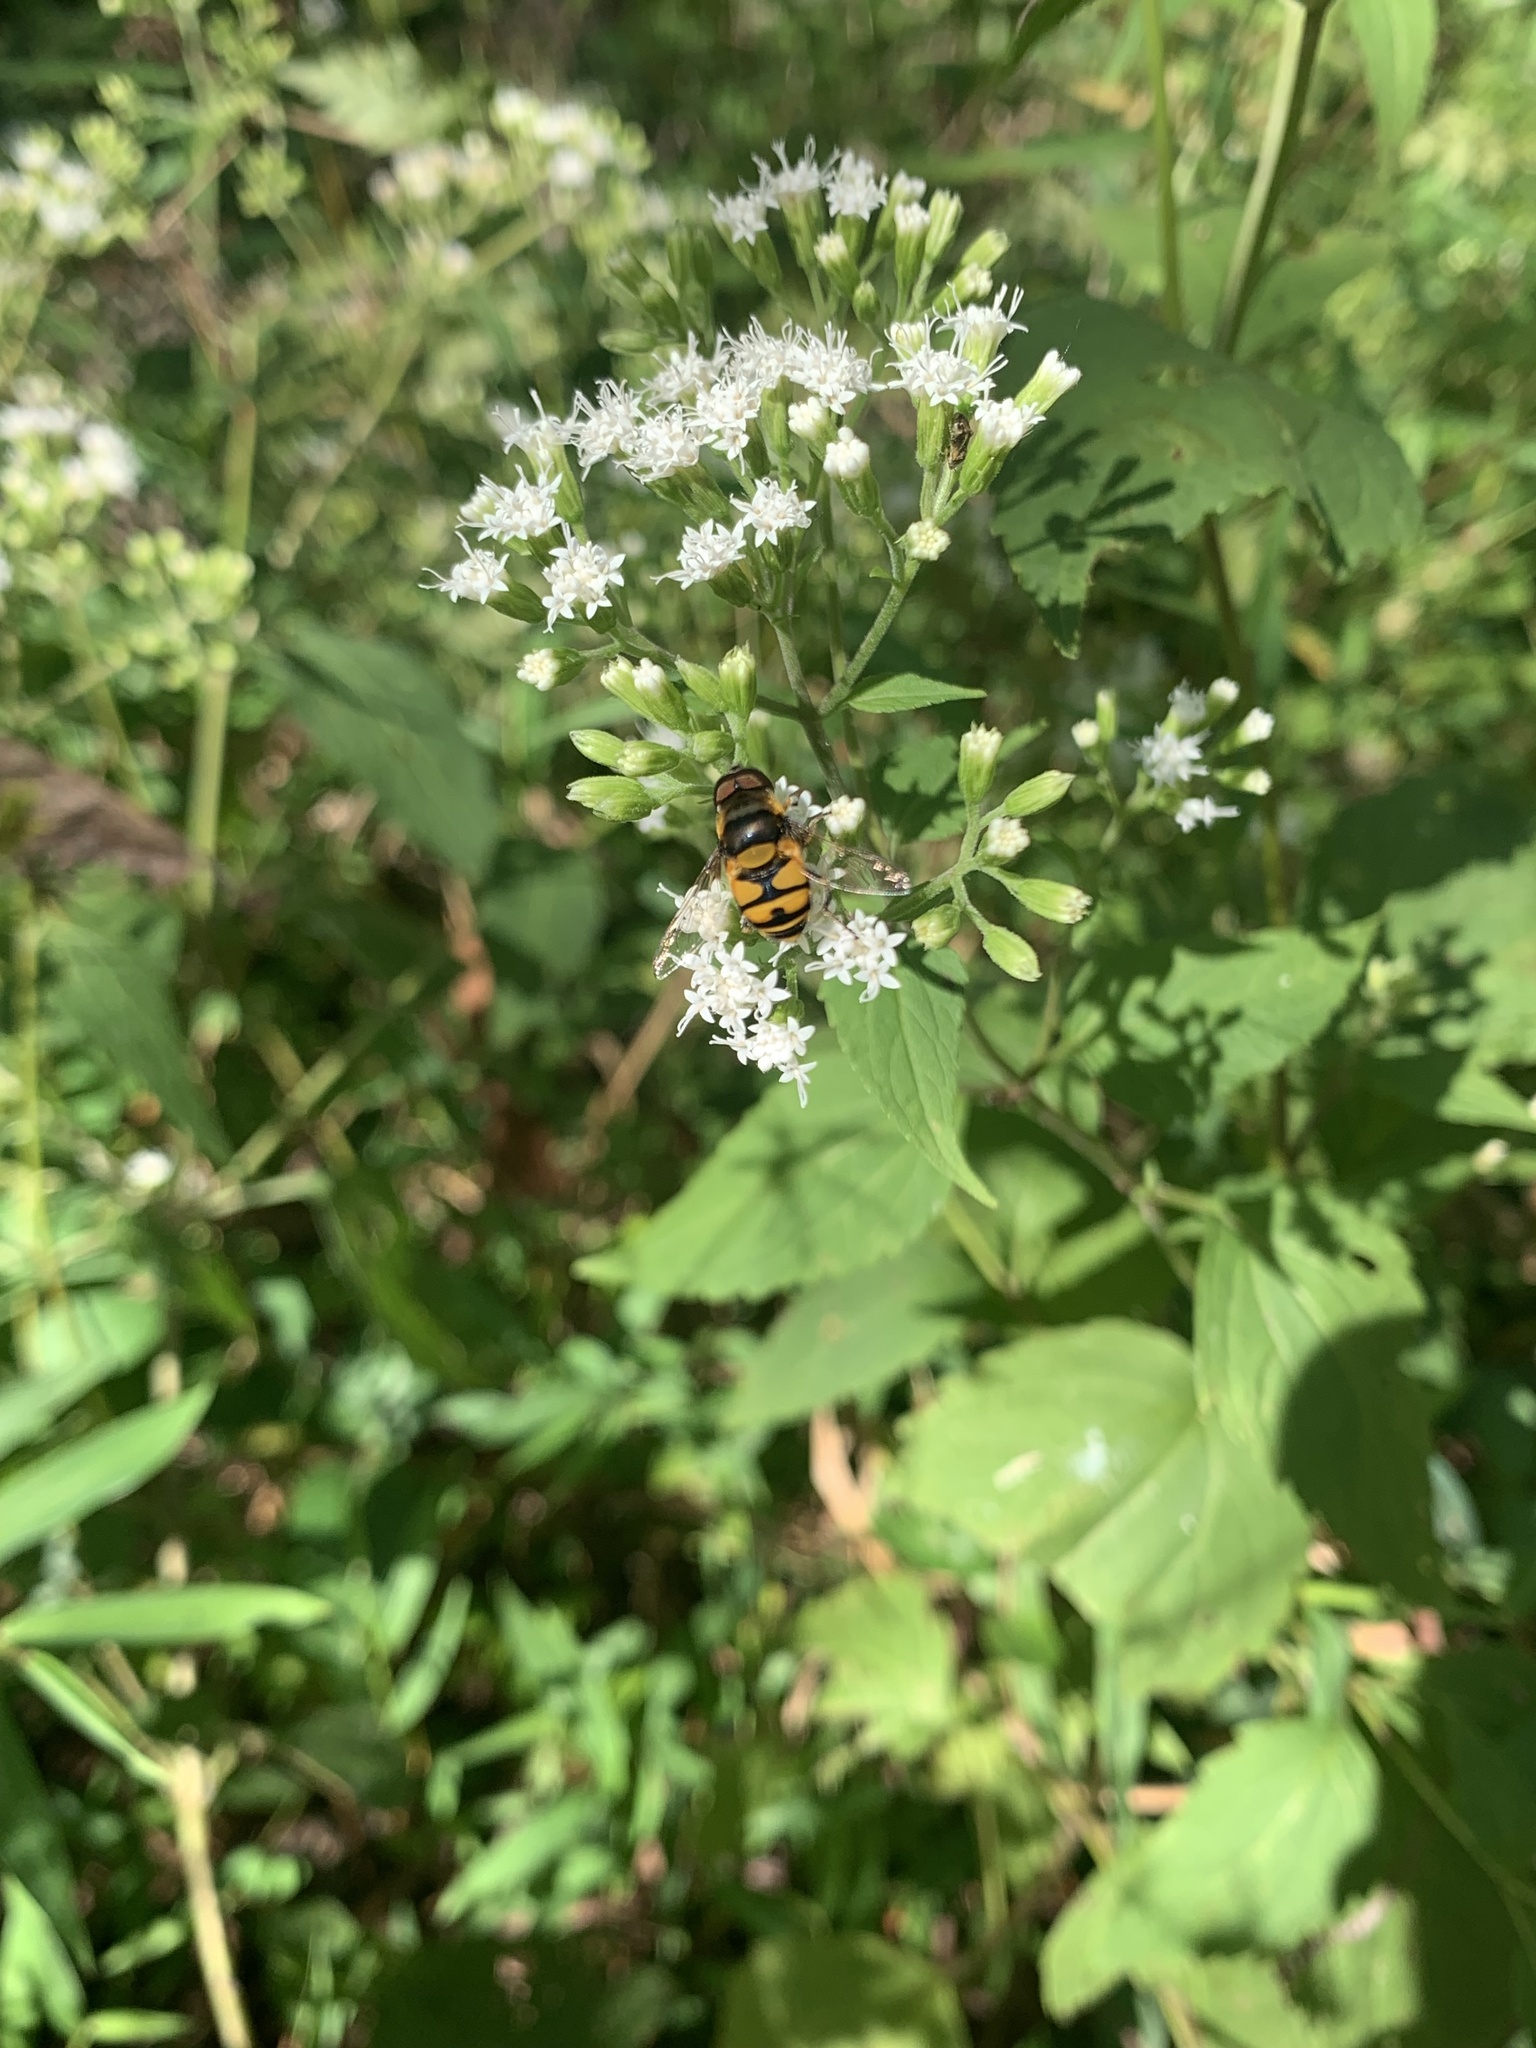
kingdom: Animalia
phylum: Arthropoda
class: Insecta
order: Diptera
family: Syrphidae
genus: Eristalis
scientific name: Eristalis transversa
